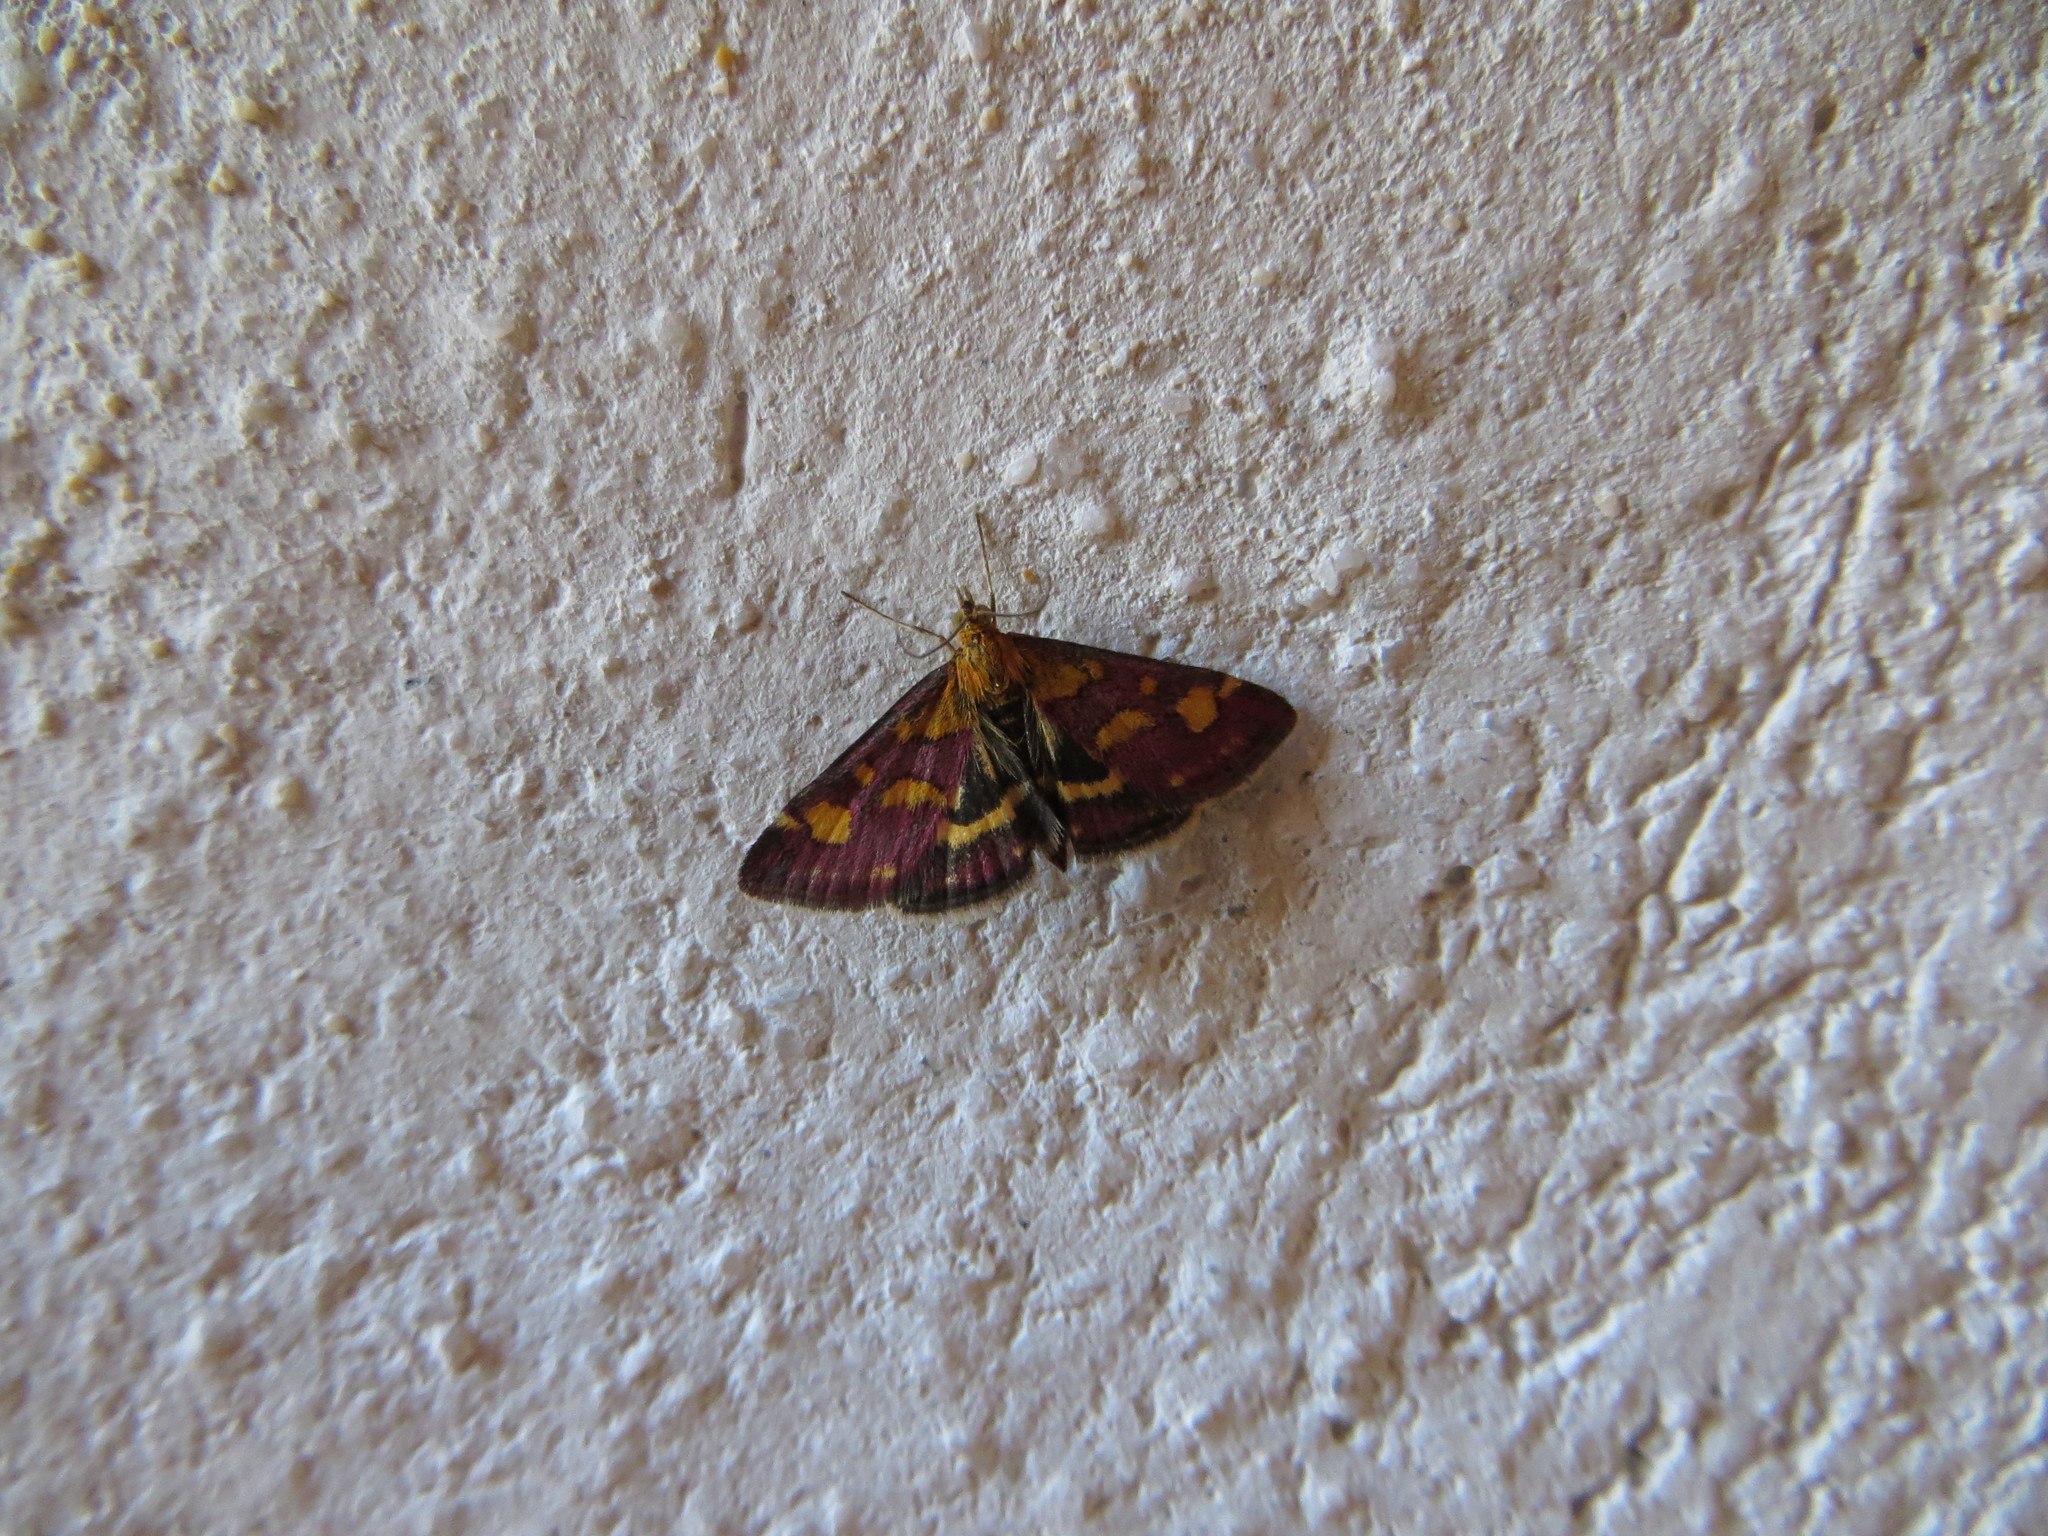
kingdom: Animalia
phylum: Arthropoda
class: Insecta
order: Lepidoptera
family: Crambidae
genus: Pyrausta
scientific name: Pyrausta purpuralis
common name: Common purple & gold
